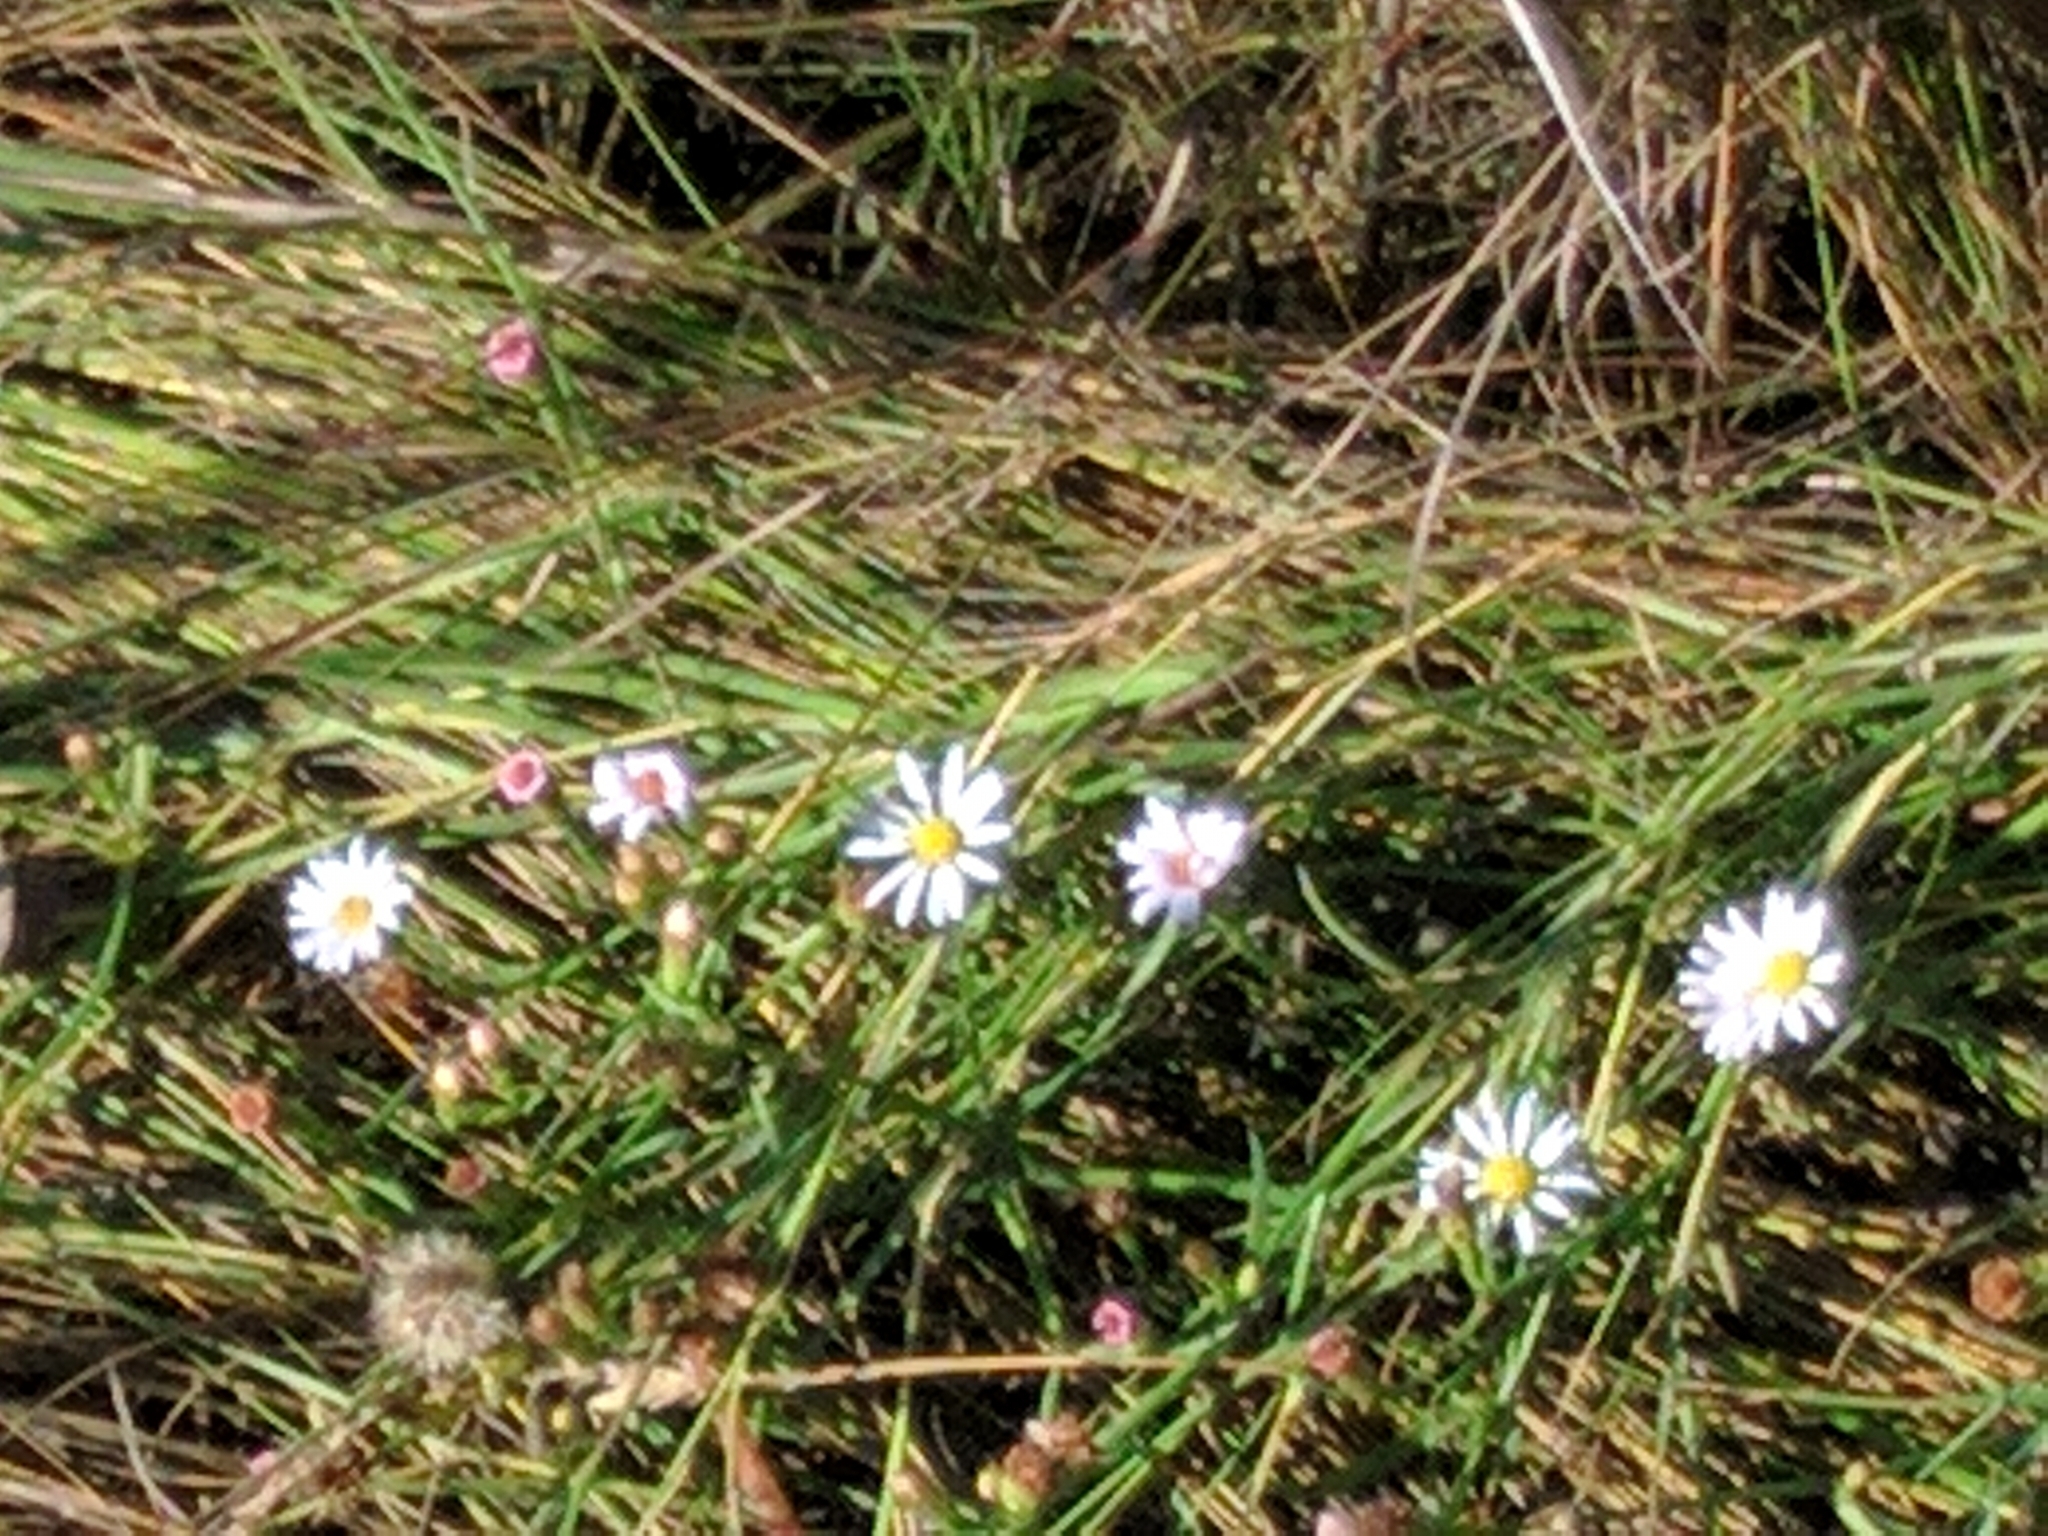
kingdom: Plantae
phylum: Tracheophyta
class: Magnoliopsida
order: Asterales
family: Asteraceae
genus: Symphyotrichum
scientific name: Symphyotrichum tenuifolium
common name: Perennial salt-marsh aster
